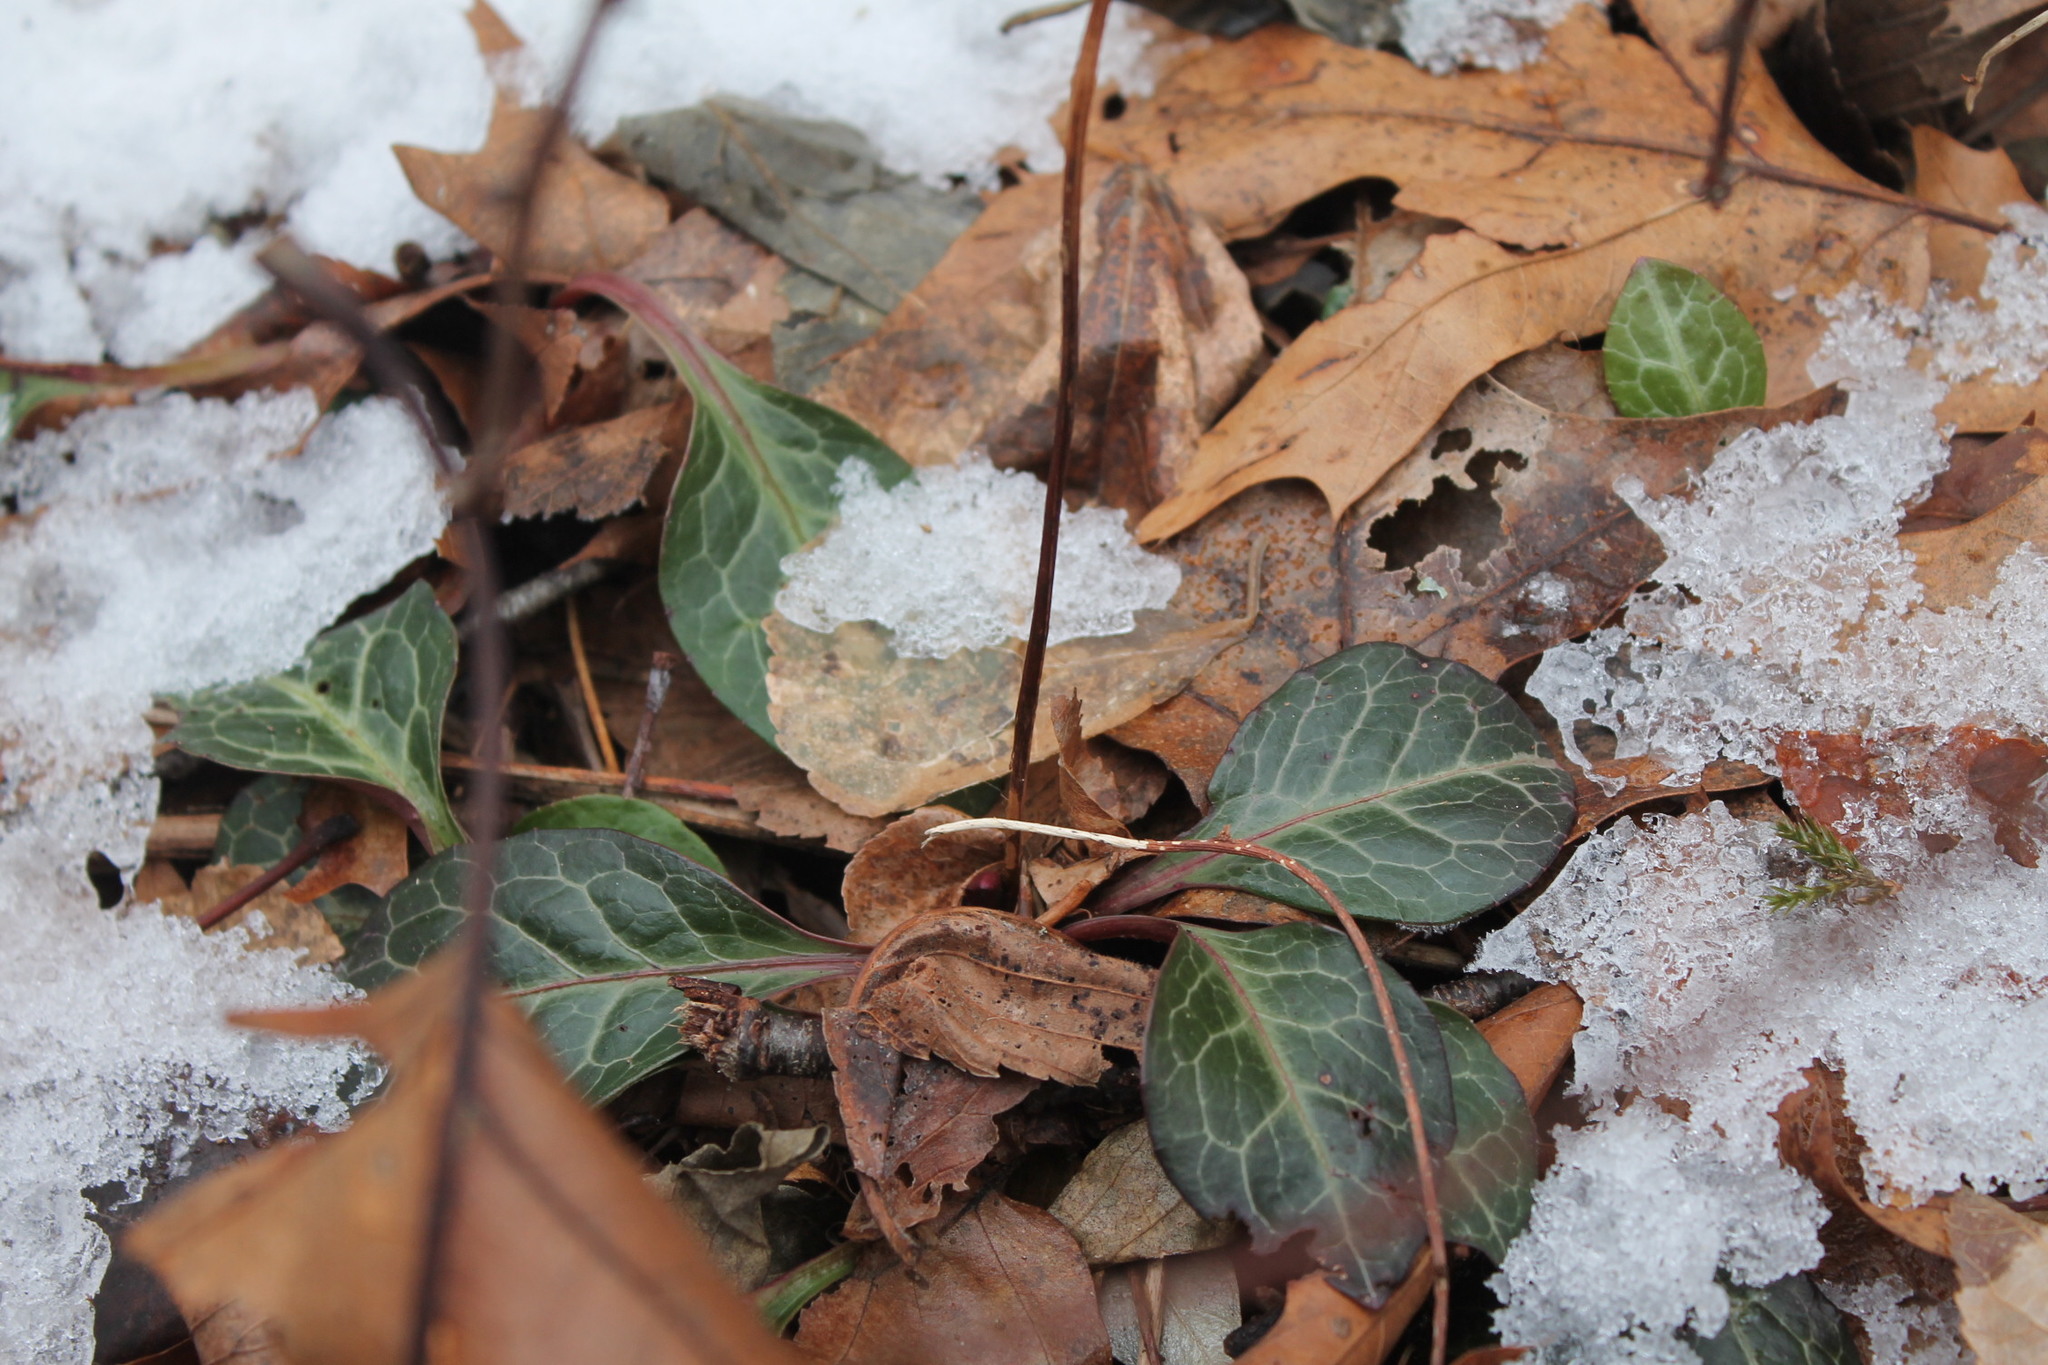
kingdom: Plantae
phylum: Tracheophyta
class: Magnoliopsida
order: Ericales
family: Ericaceae
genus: Pyrola
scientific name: Pyrola americana
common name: American wintergreen
